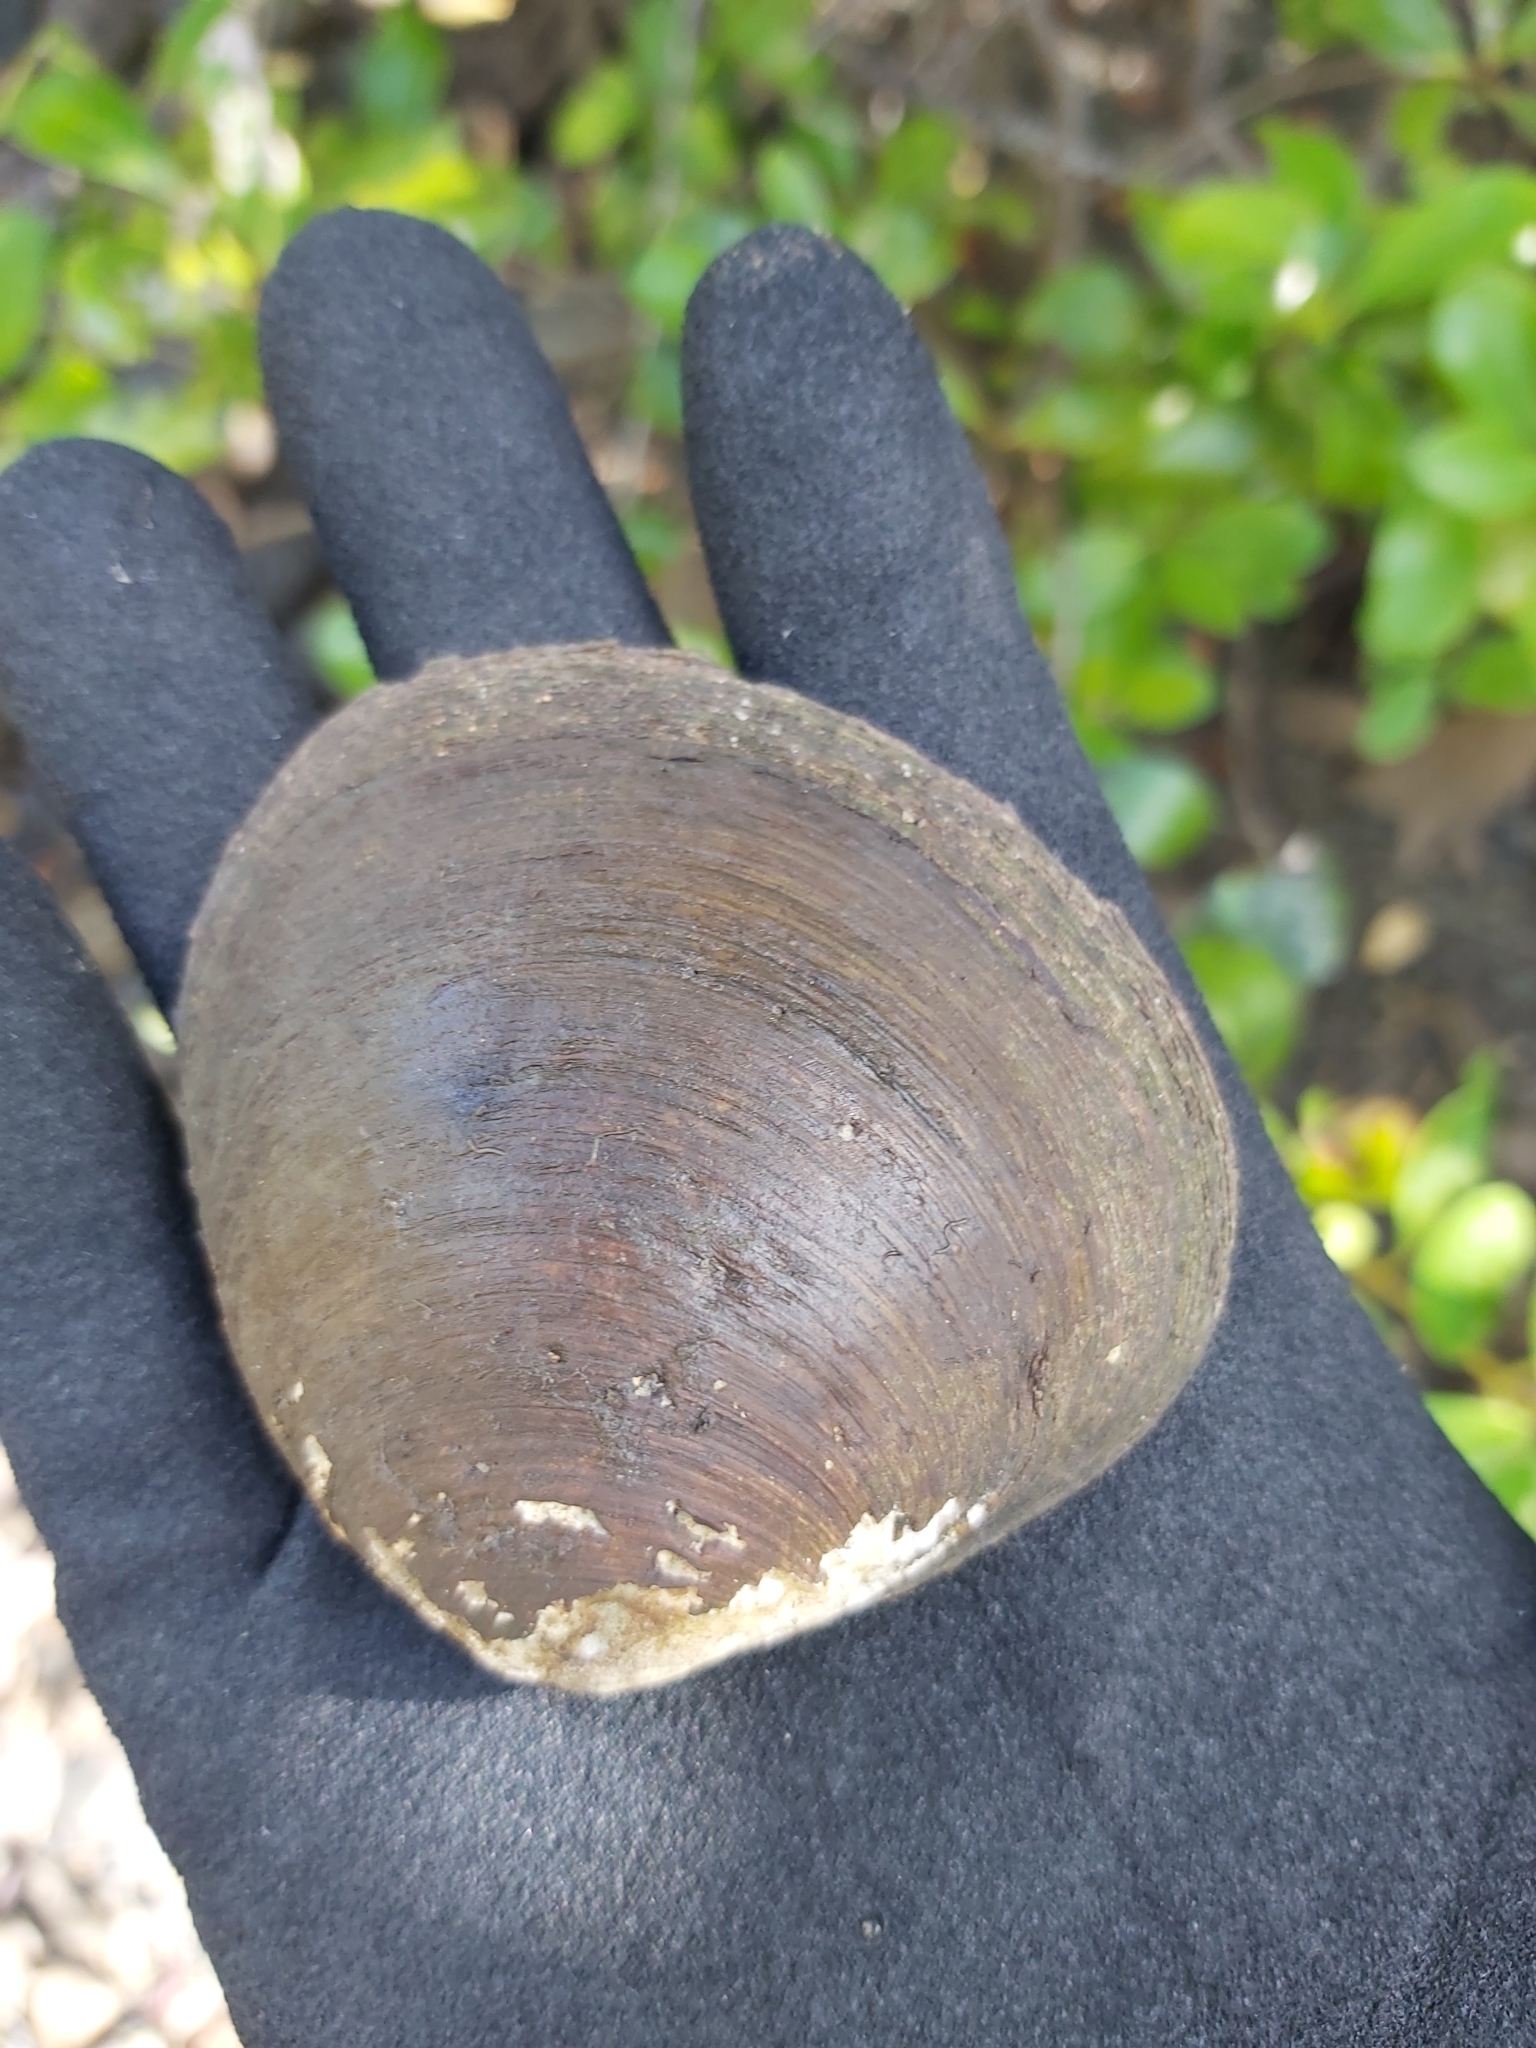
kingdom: Animalia
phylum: Mollusca
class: Bivalvia
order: Venerida
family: Cyrenidae
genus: Geloina
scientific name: Geloina coaxans
